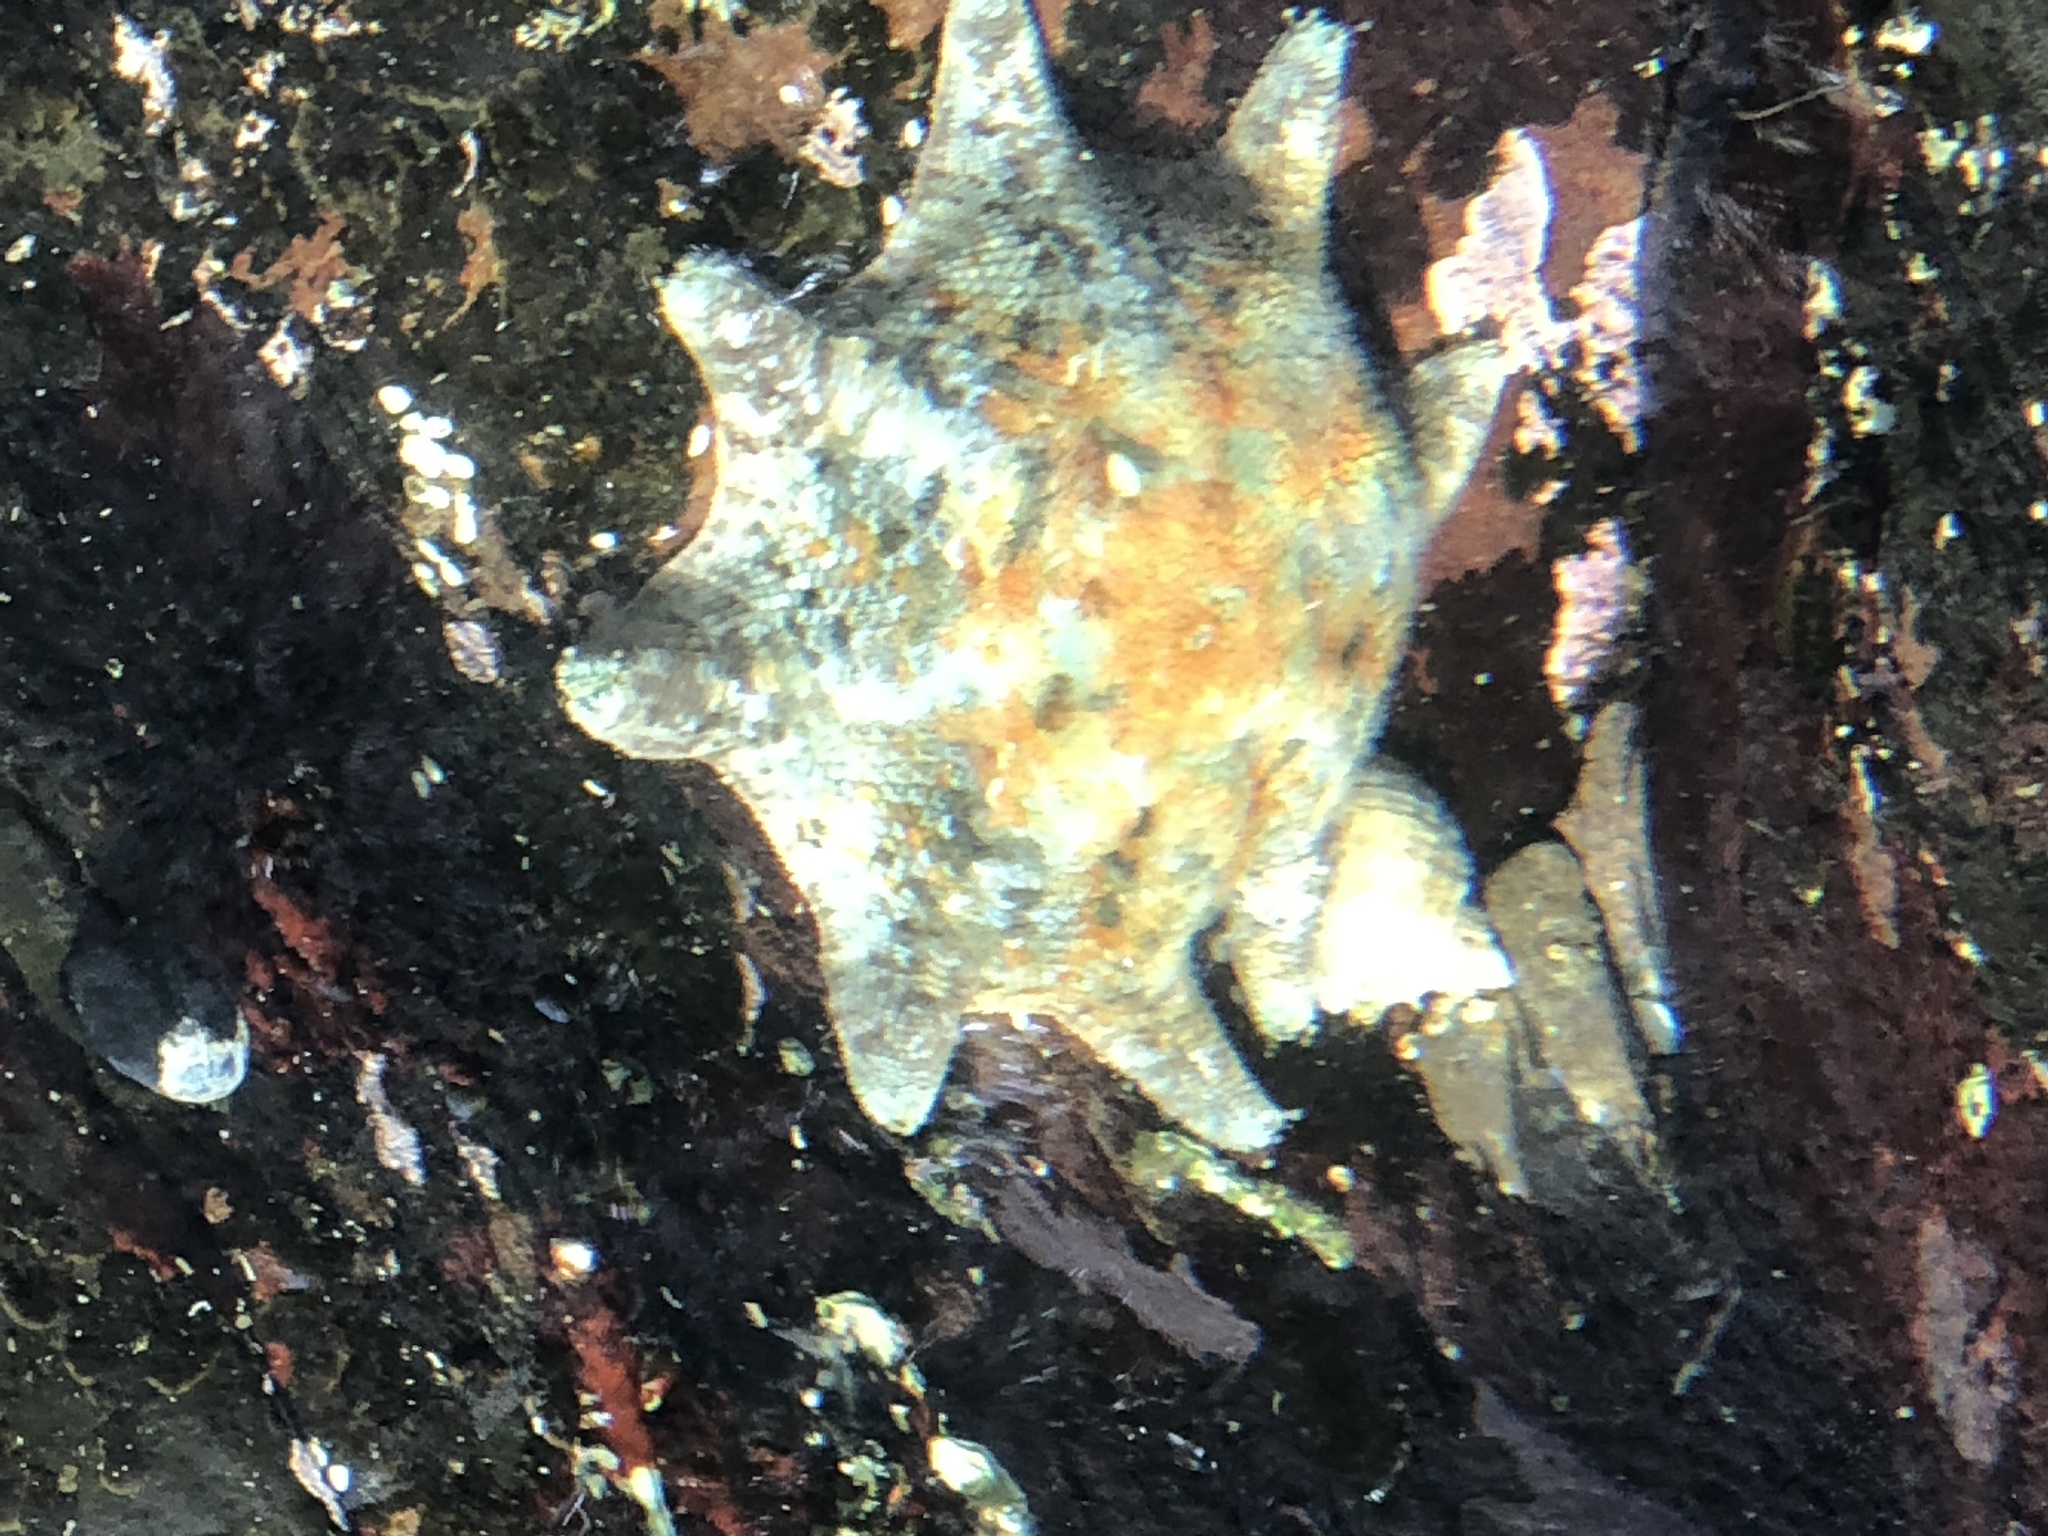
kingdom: Animalia
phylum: Echinodermata
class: Asteroidea
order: Valvatida
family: Asterinidae
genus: Meridiastra
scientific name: Meridiastra calcar
